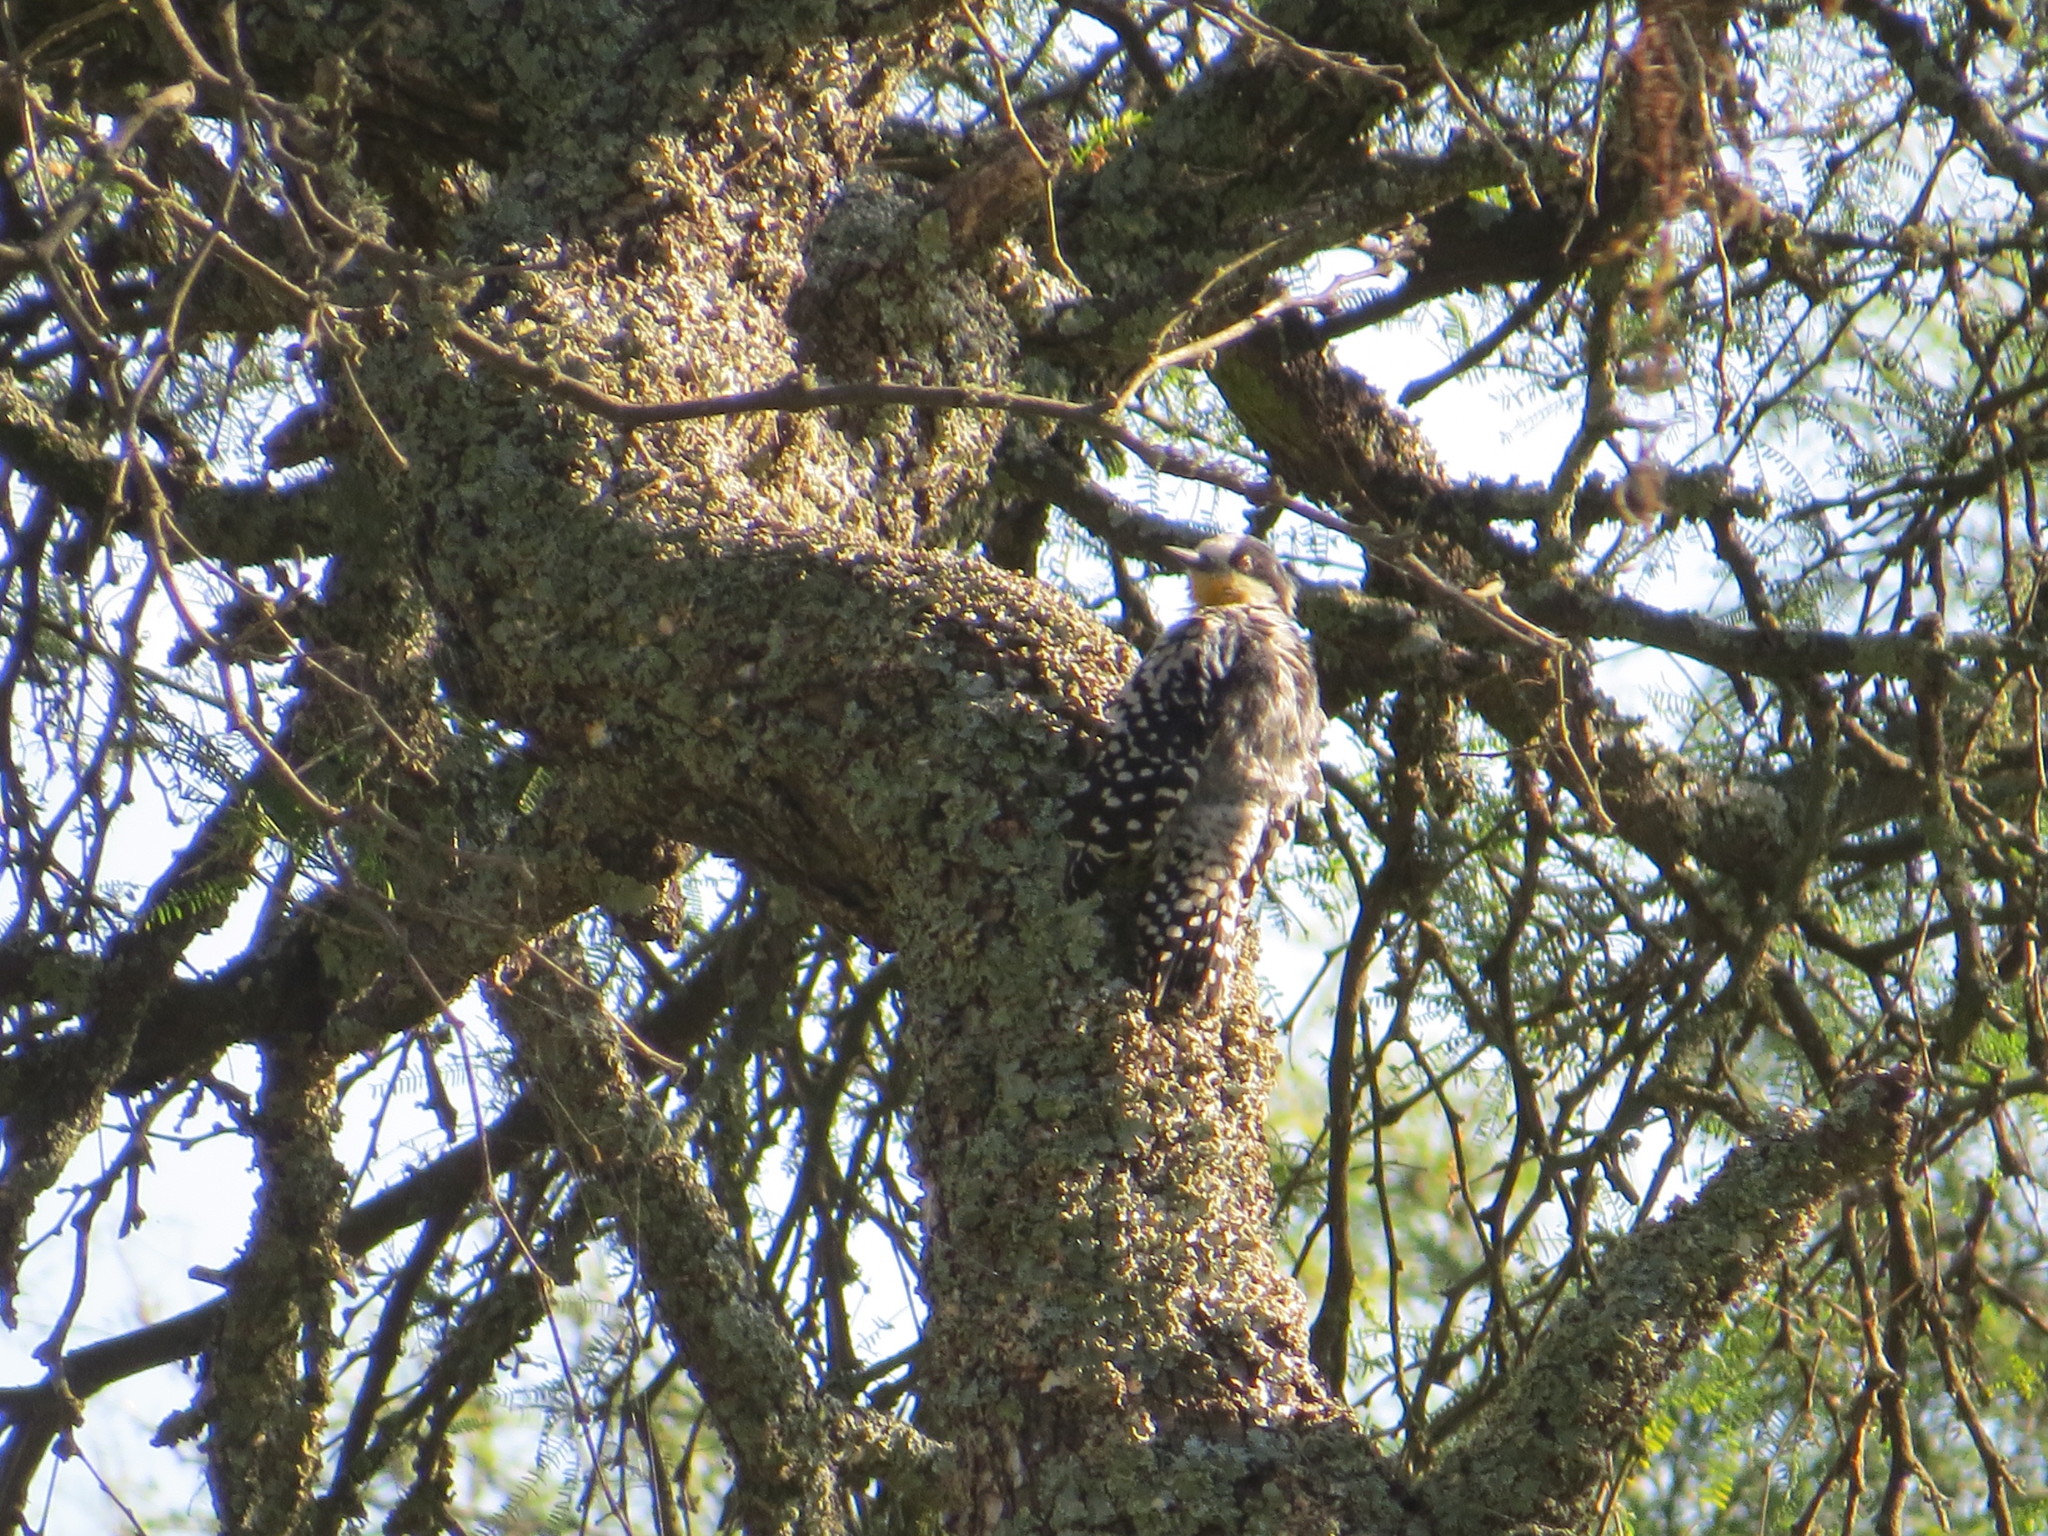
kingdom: Animalia
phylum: Chordata
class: Aves
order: Piciformes
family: Picidae
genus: Melanerpes
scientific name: Melanerpes cactorum
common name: White-fronted woodpecker
